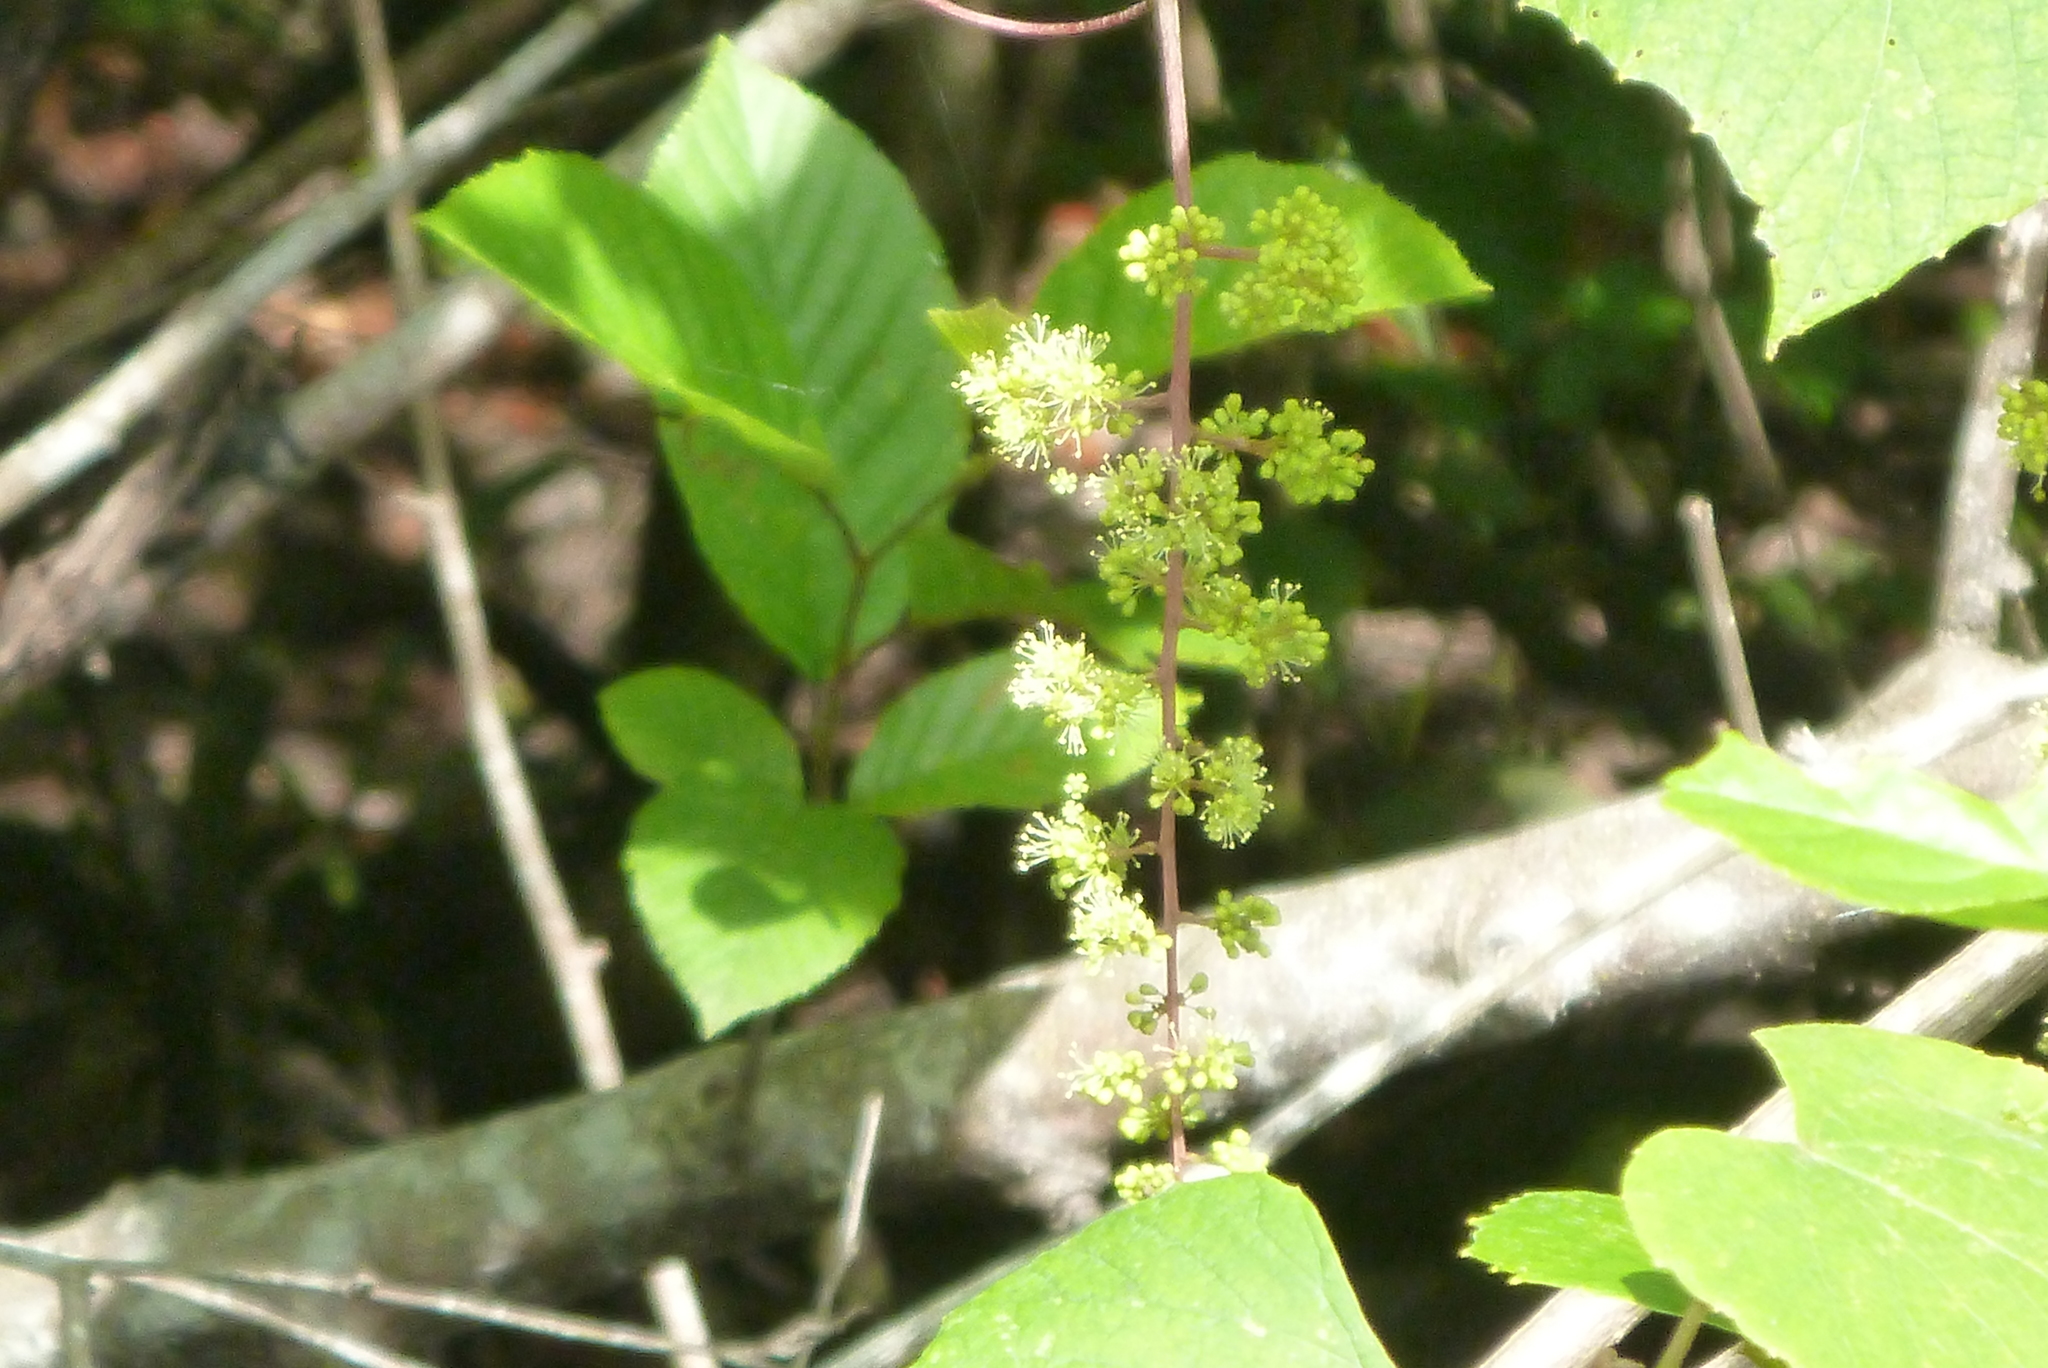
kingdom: Plantae
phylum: Tracheophyta
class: Magnoliopsida
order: Vitales
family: Vitaceae
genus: Vitis
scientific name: Vitis rotundifolia
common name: Muscadine grape
